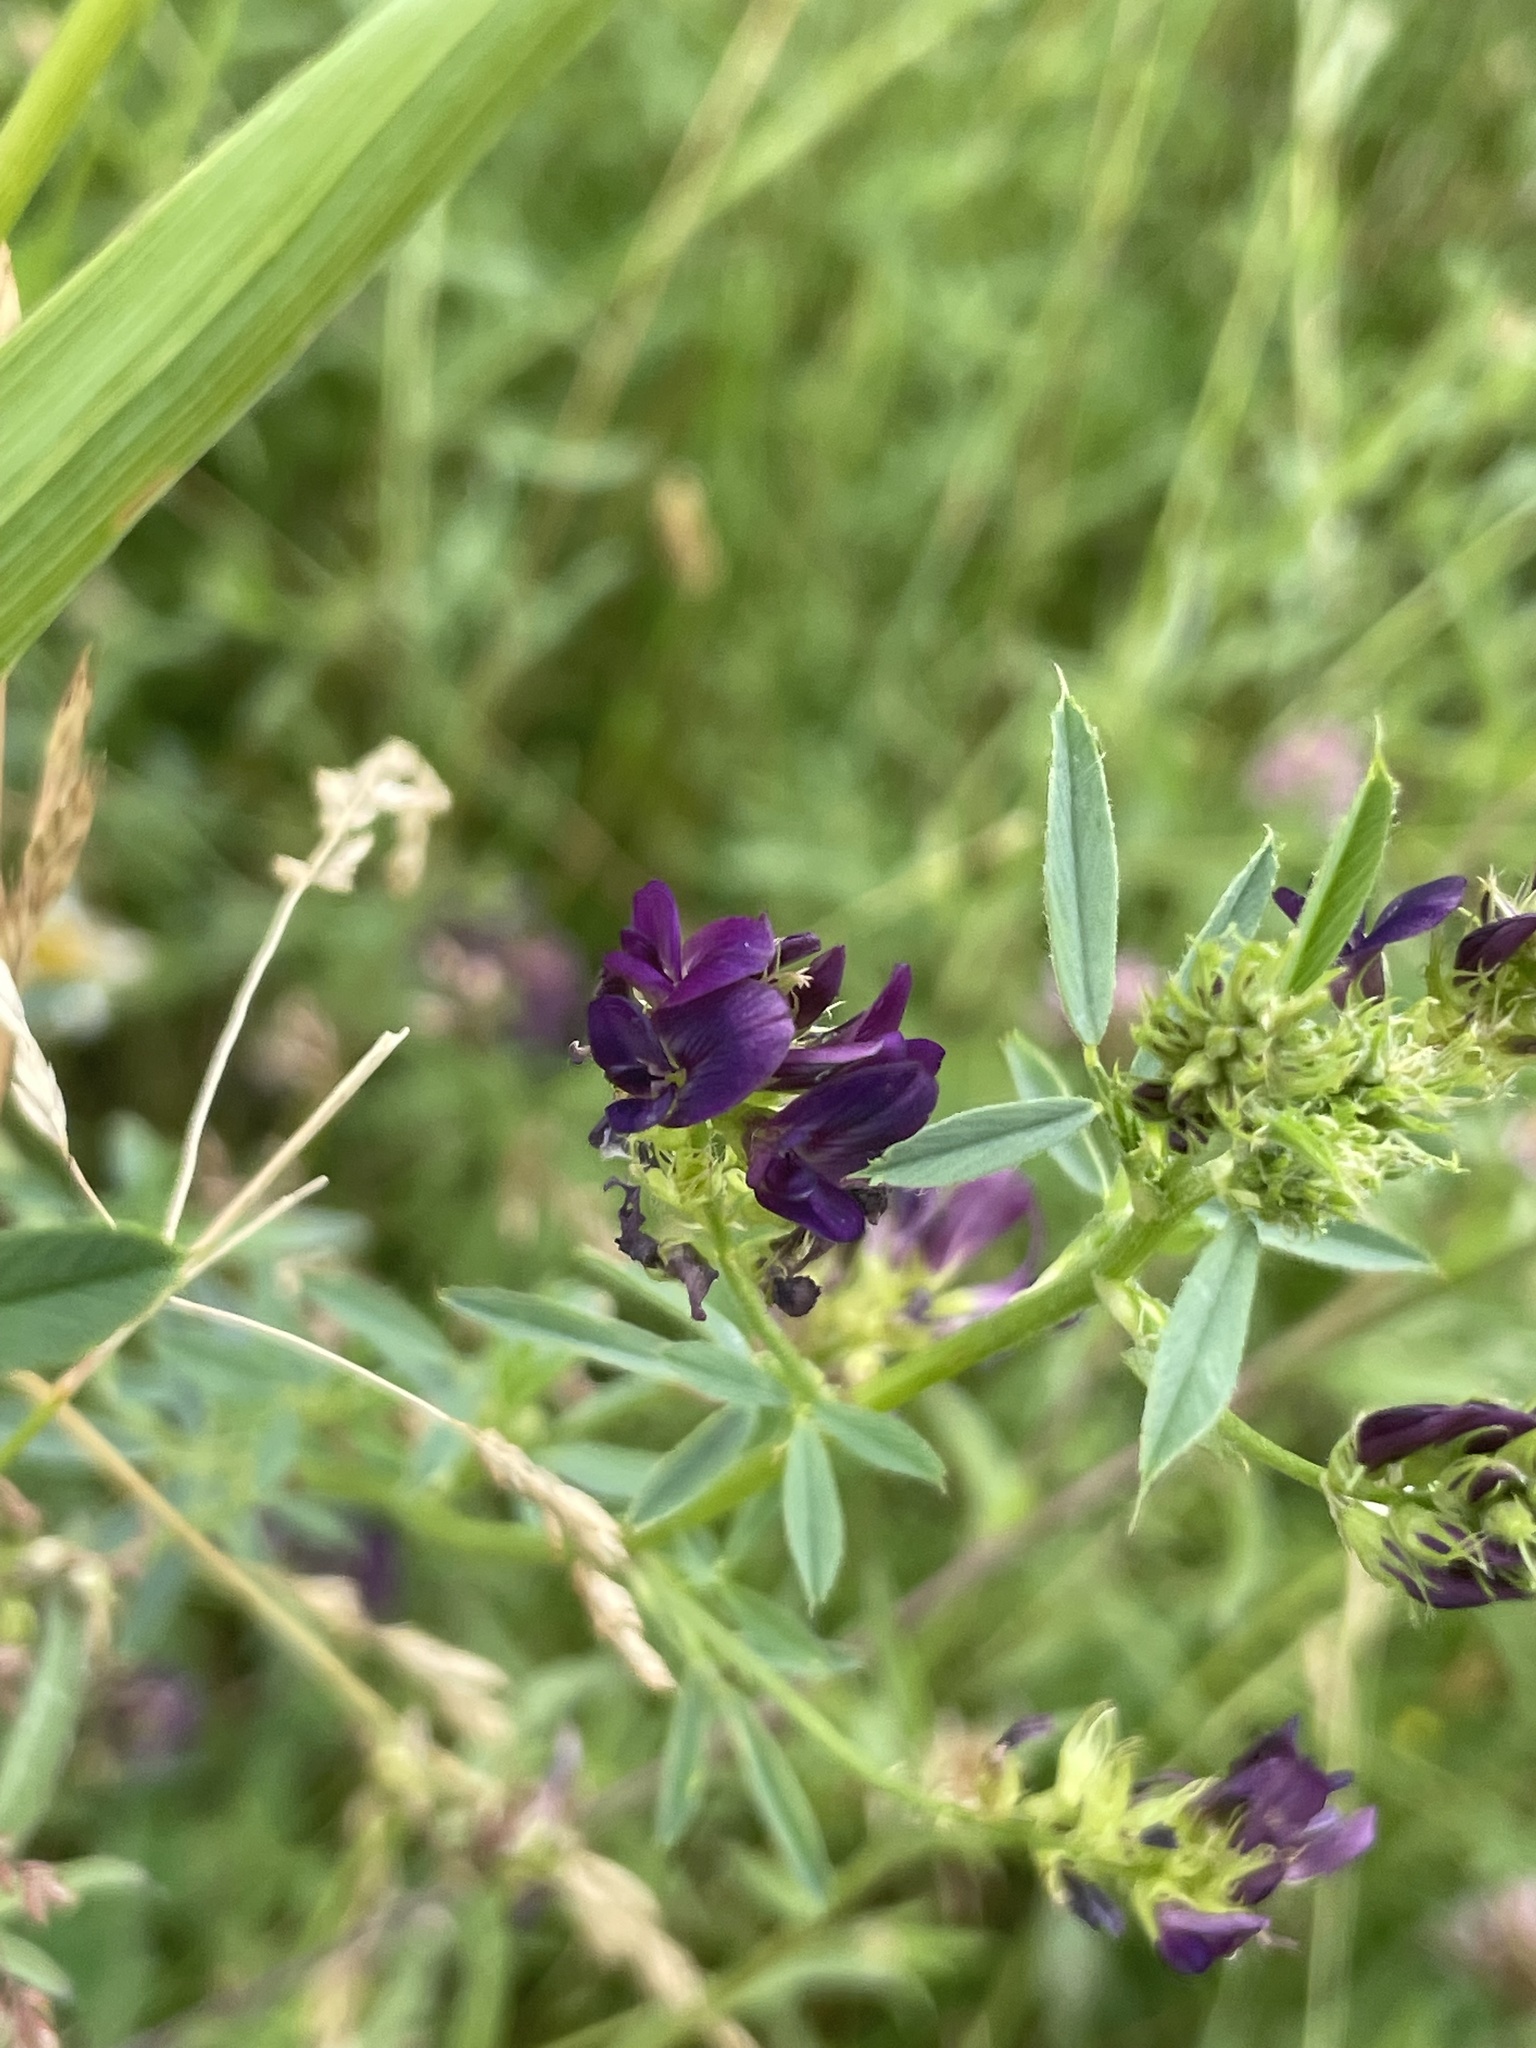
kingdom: Plantae
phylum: Tracheophyta
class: Magnoliopsida
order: Fabales
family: Fabaceae
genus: Medicago
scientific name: Medicago sativa
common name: Alfalfa
